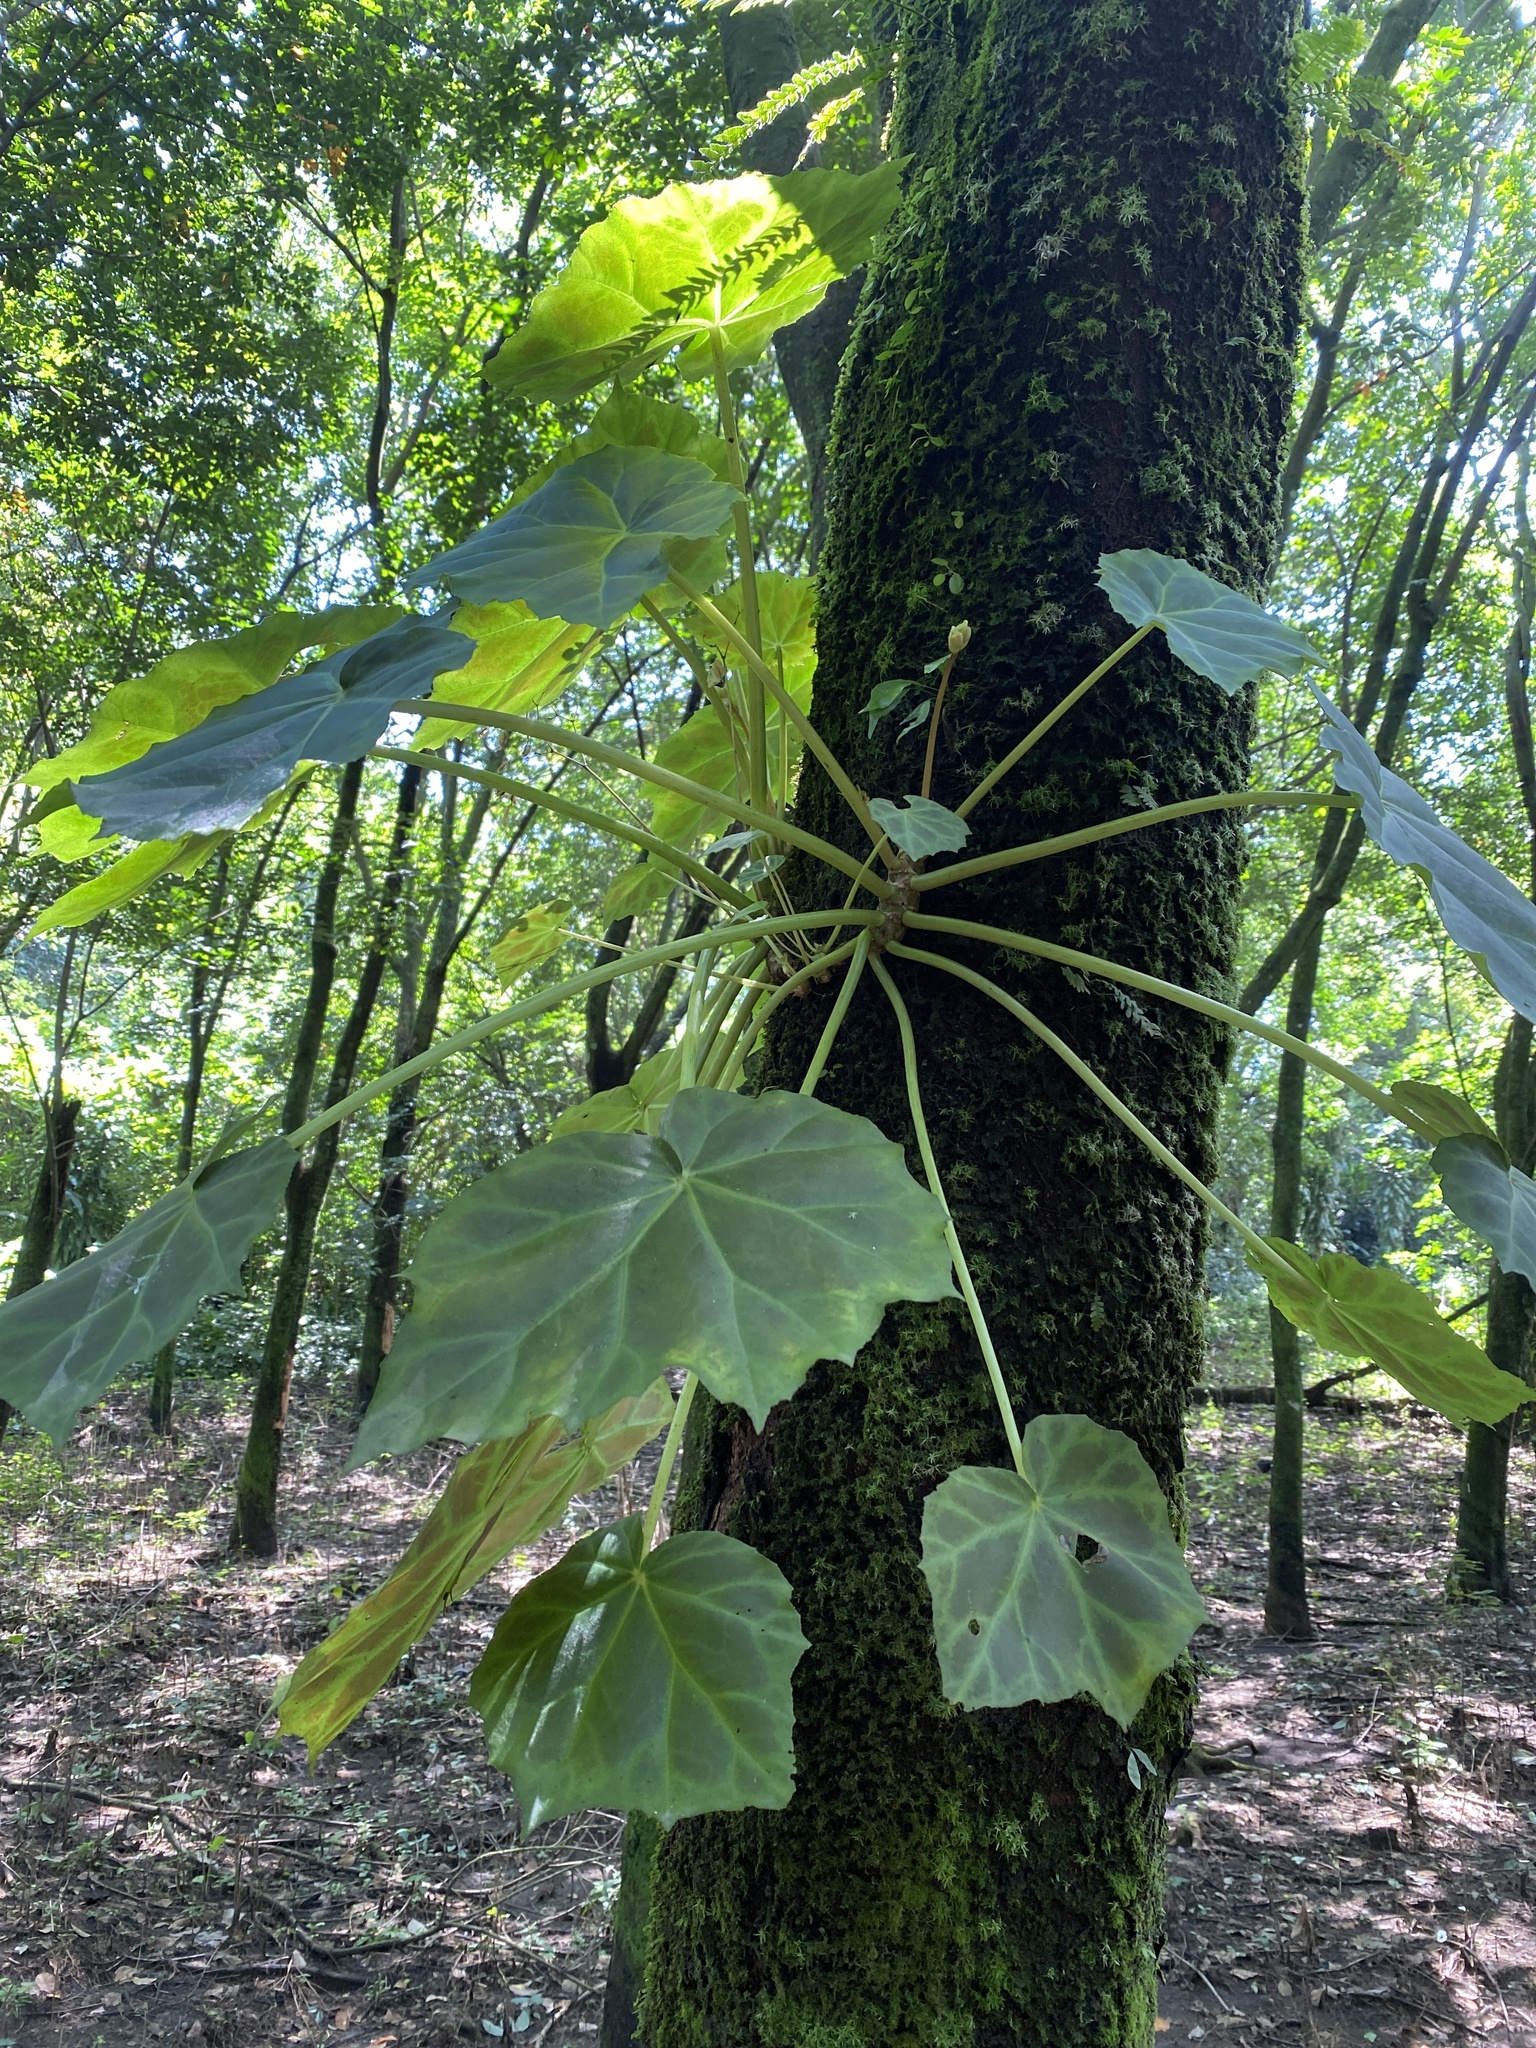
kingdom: Plantae
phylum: Tracheophyta
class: Magnoliopsida
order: Cucurbitales
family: Begoniaceae
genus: Begonia
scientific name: Begonia plebeja
